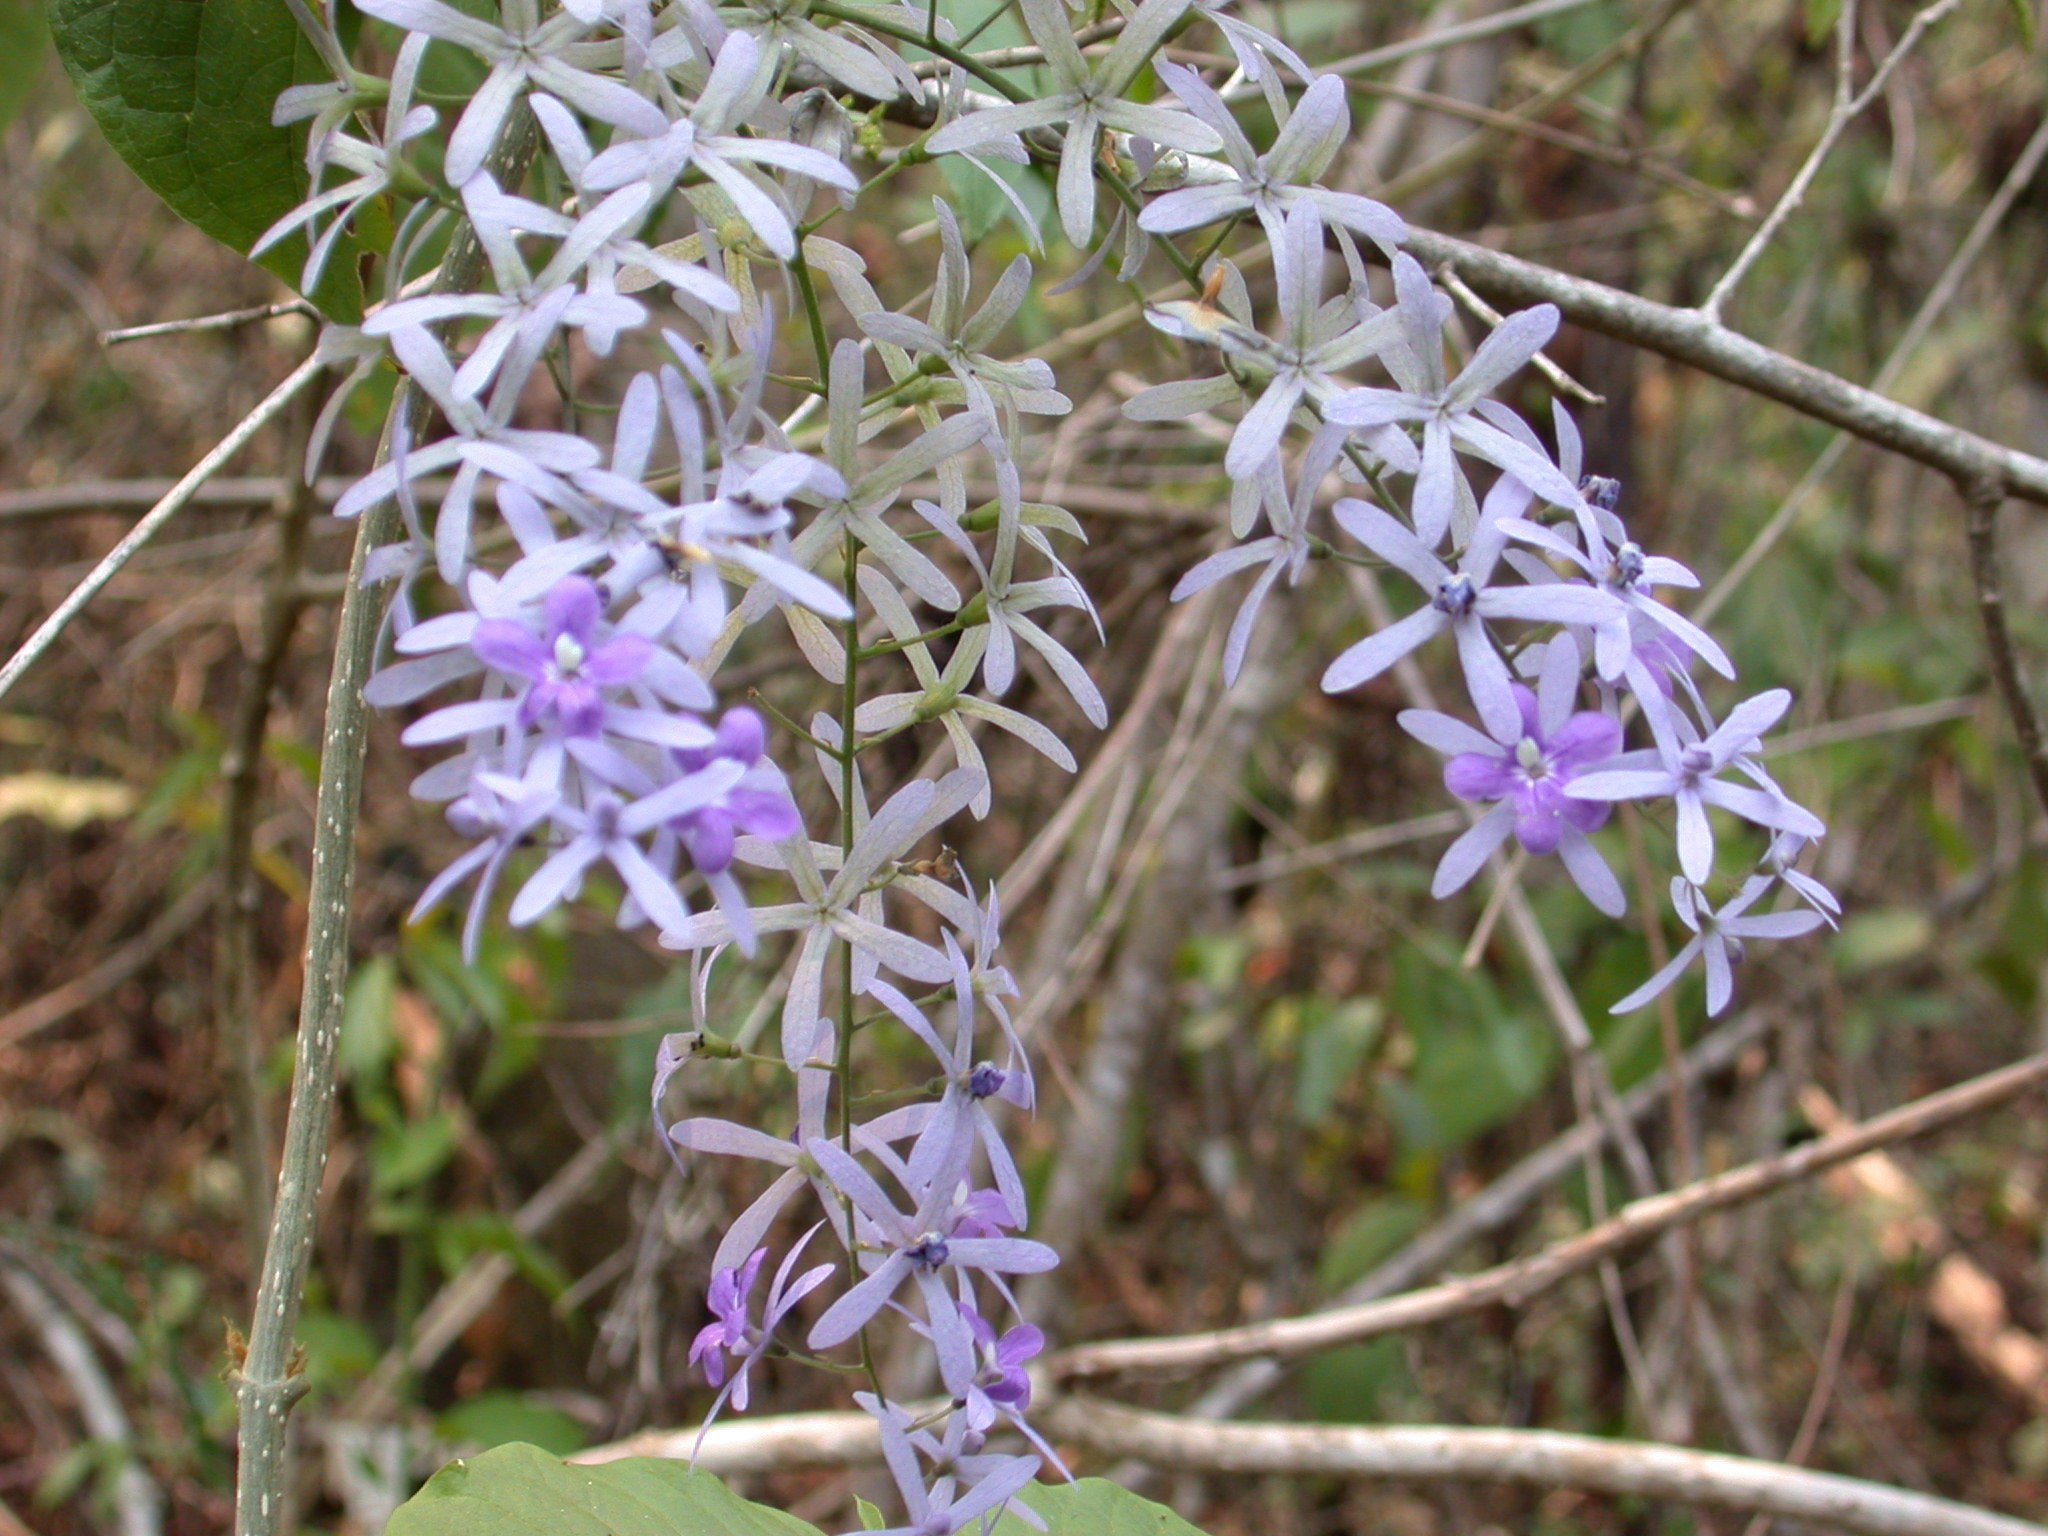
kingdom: Plantae
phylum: Tracheophyta
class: Magnoliopsida
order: Lamiales
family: Verbenaceae
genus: Petrea
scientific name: Petrea volubilis
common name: Queen's-wreath
